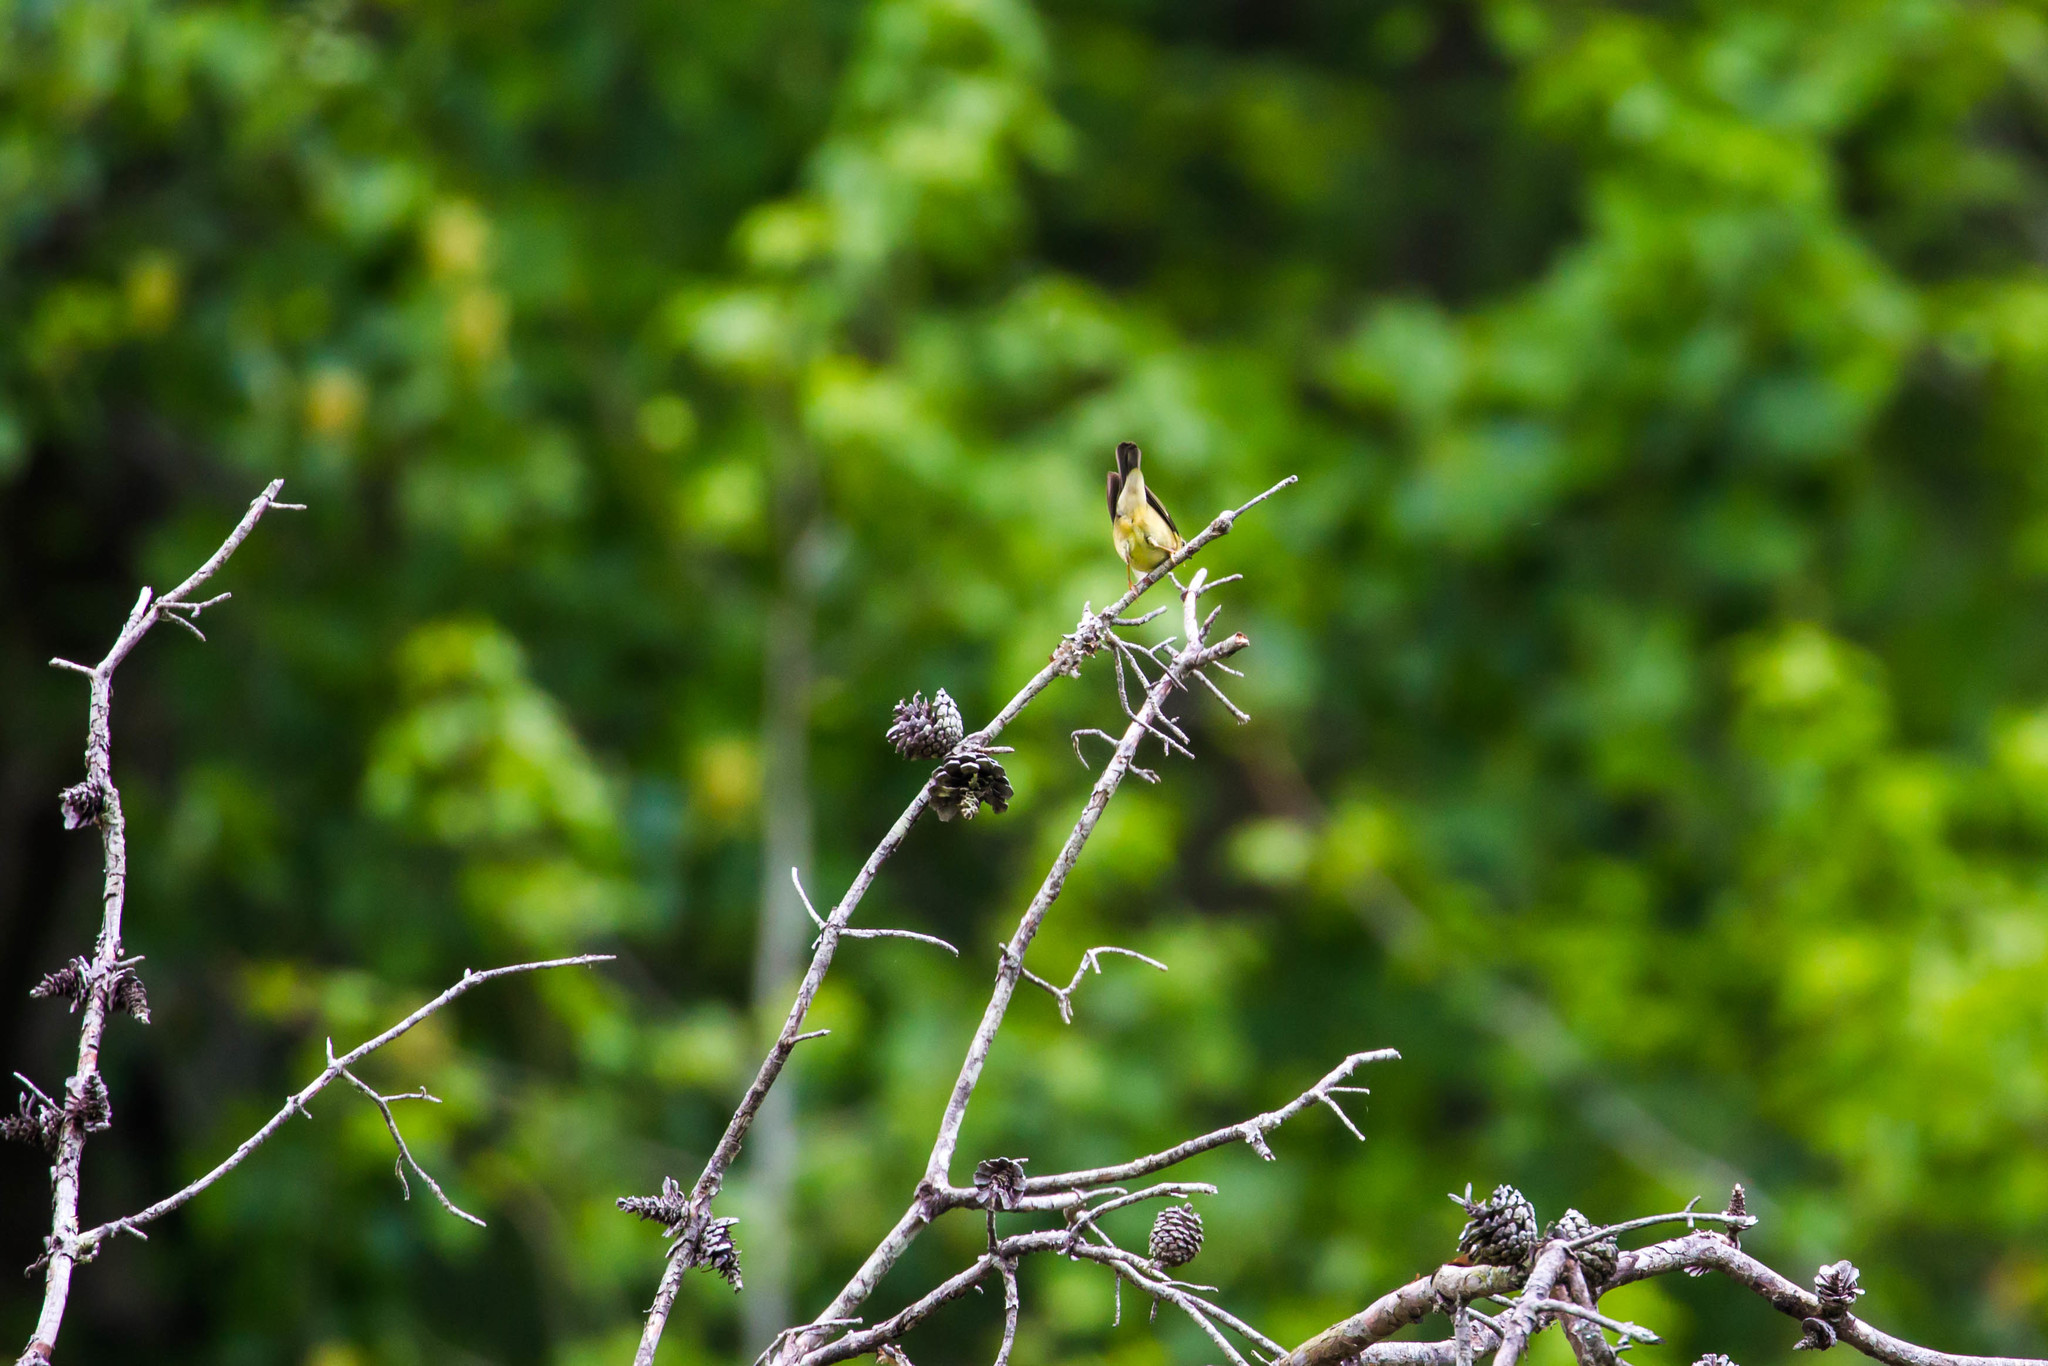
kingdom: Animalia
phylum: Chordata
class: Aves
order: Passeriformes
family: Parulidae
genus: Setophaga
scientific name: Setophaga caerulescens
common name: Black-throated blue warbler
